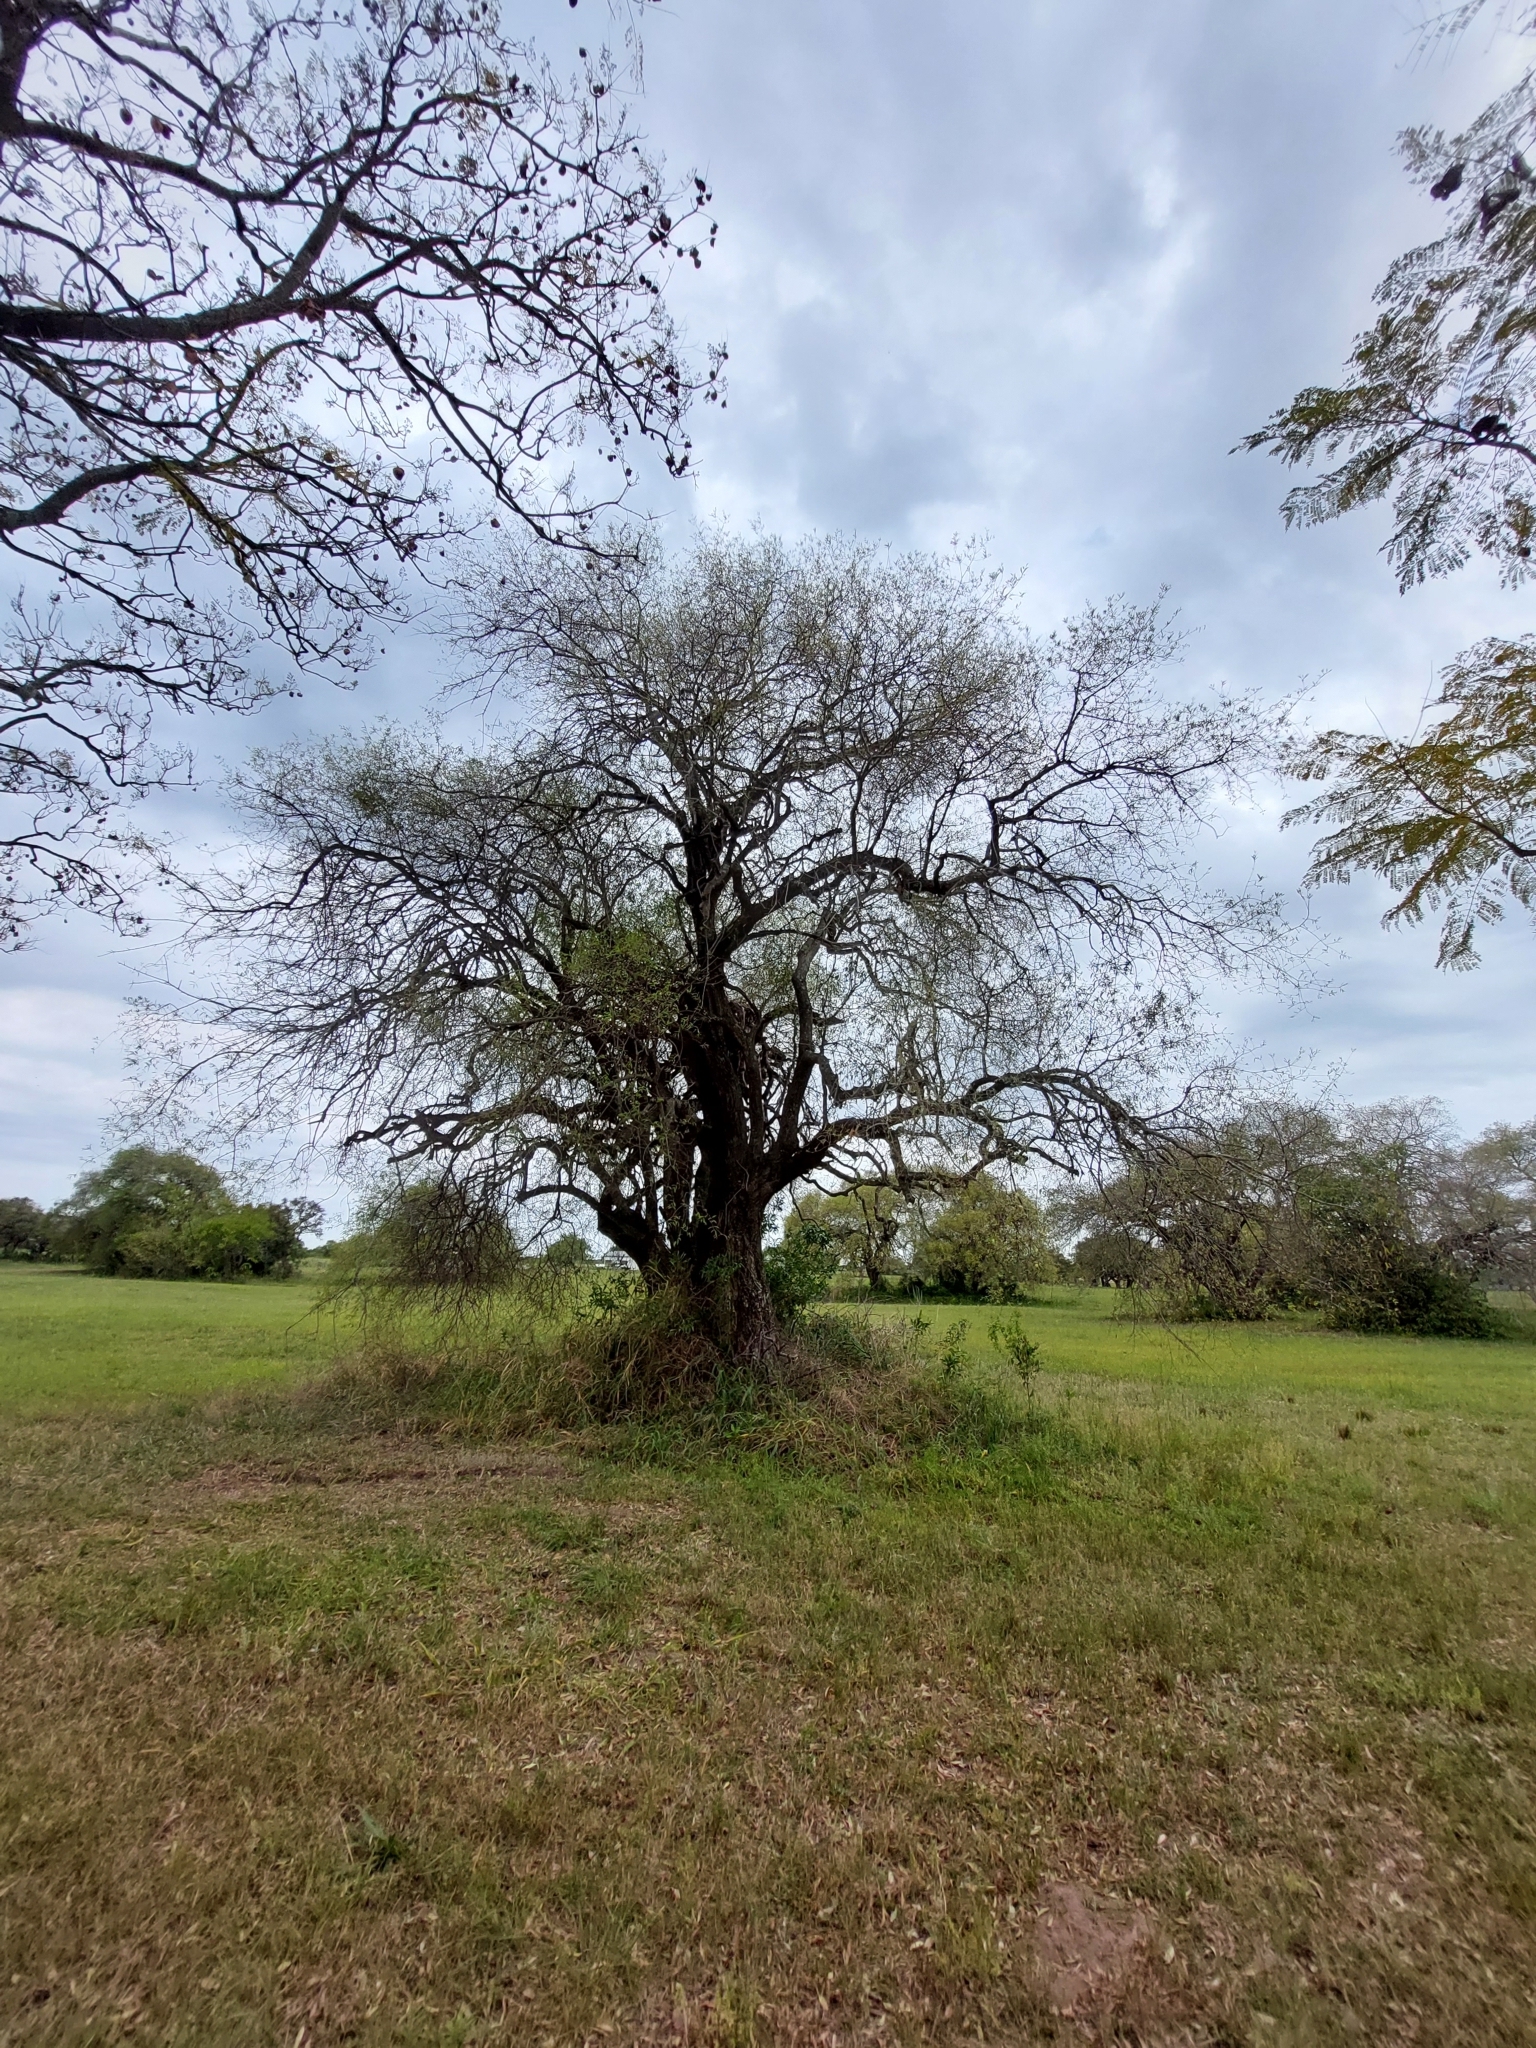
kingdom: Plantae
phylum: Tracheophyta
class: Magnoliopsida
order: Myrtales
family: Myrtaceae
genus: Eugenia
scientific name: Eugenia myrcianthes
